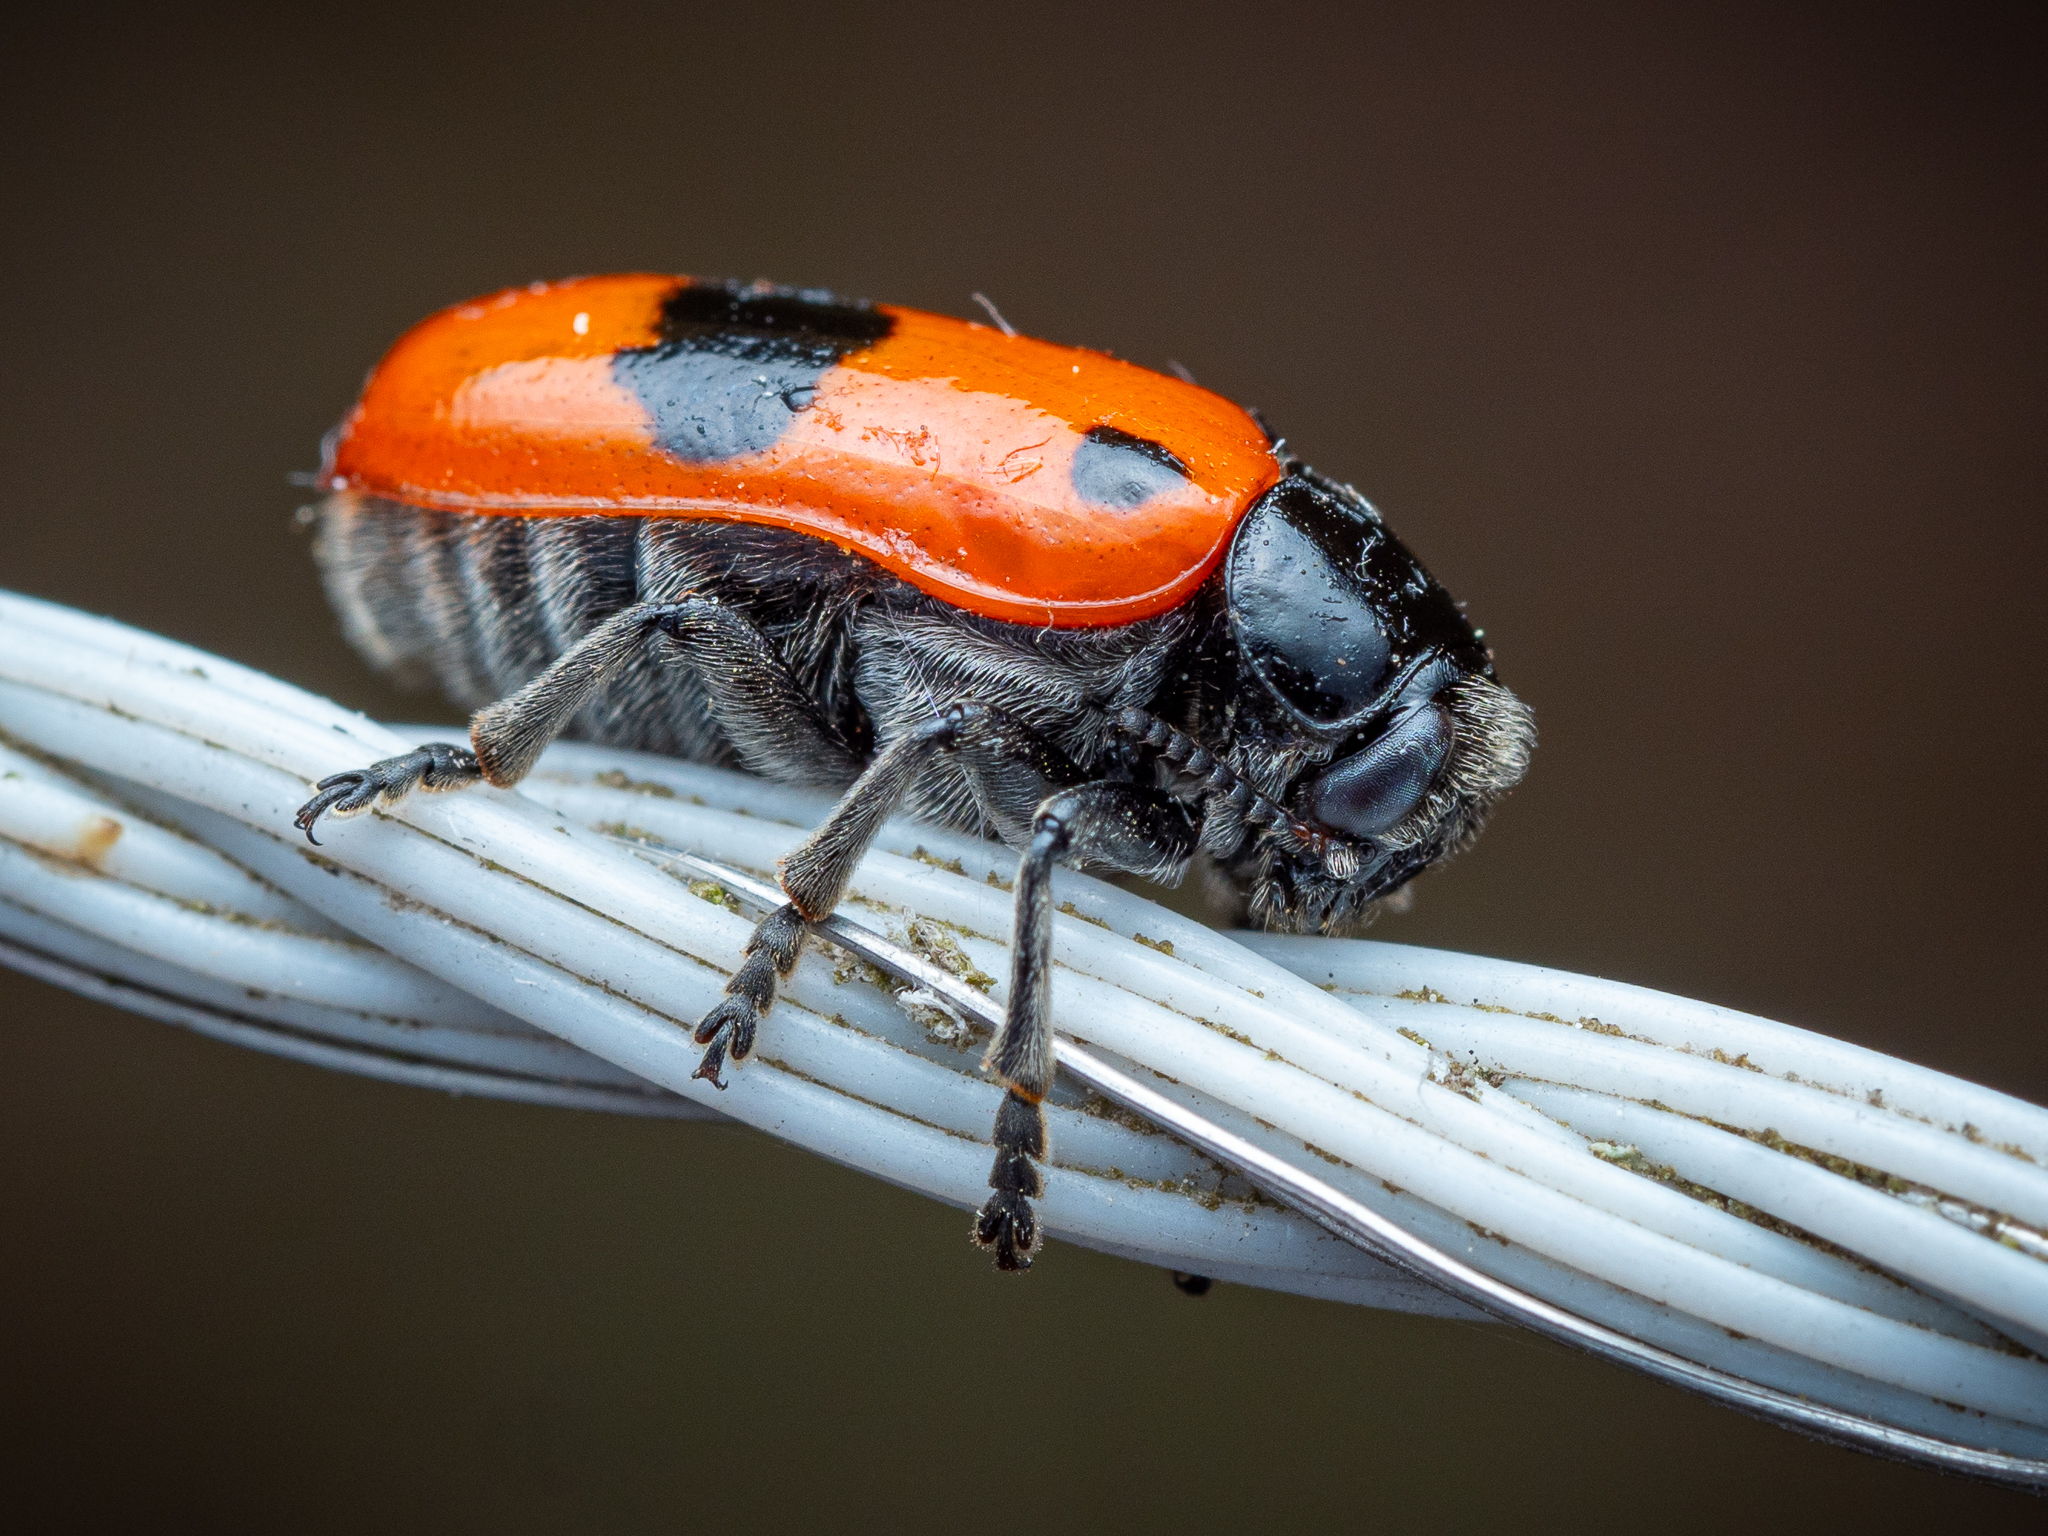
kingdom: Animalia
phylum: Arthropoda
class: Insecta
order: Coleoptera
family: Chrysomelidae
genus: Clytra
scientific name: Clytra laeviuscula
